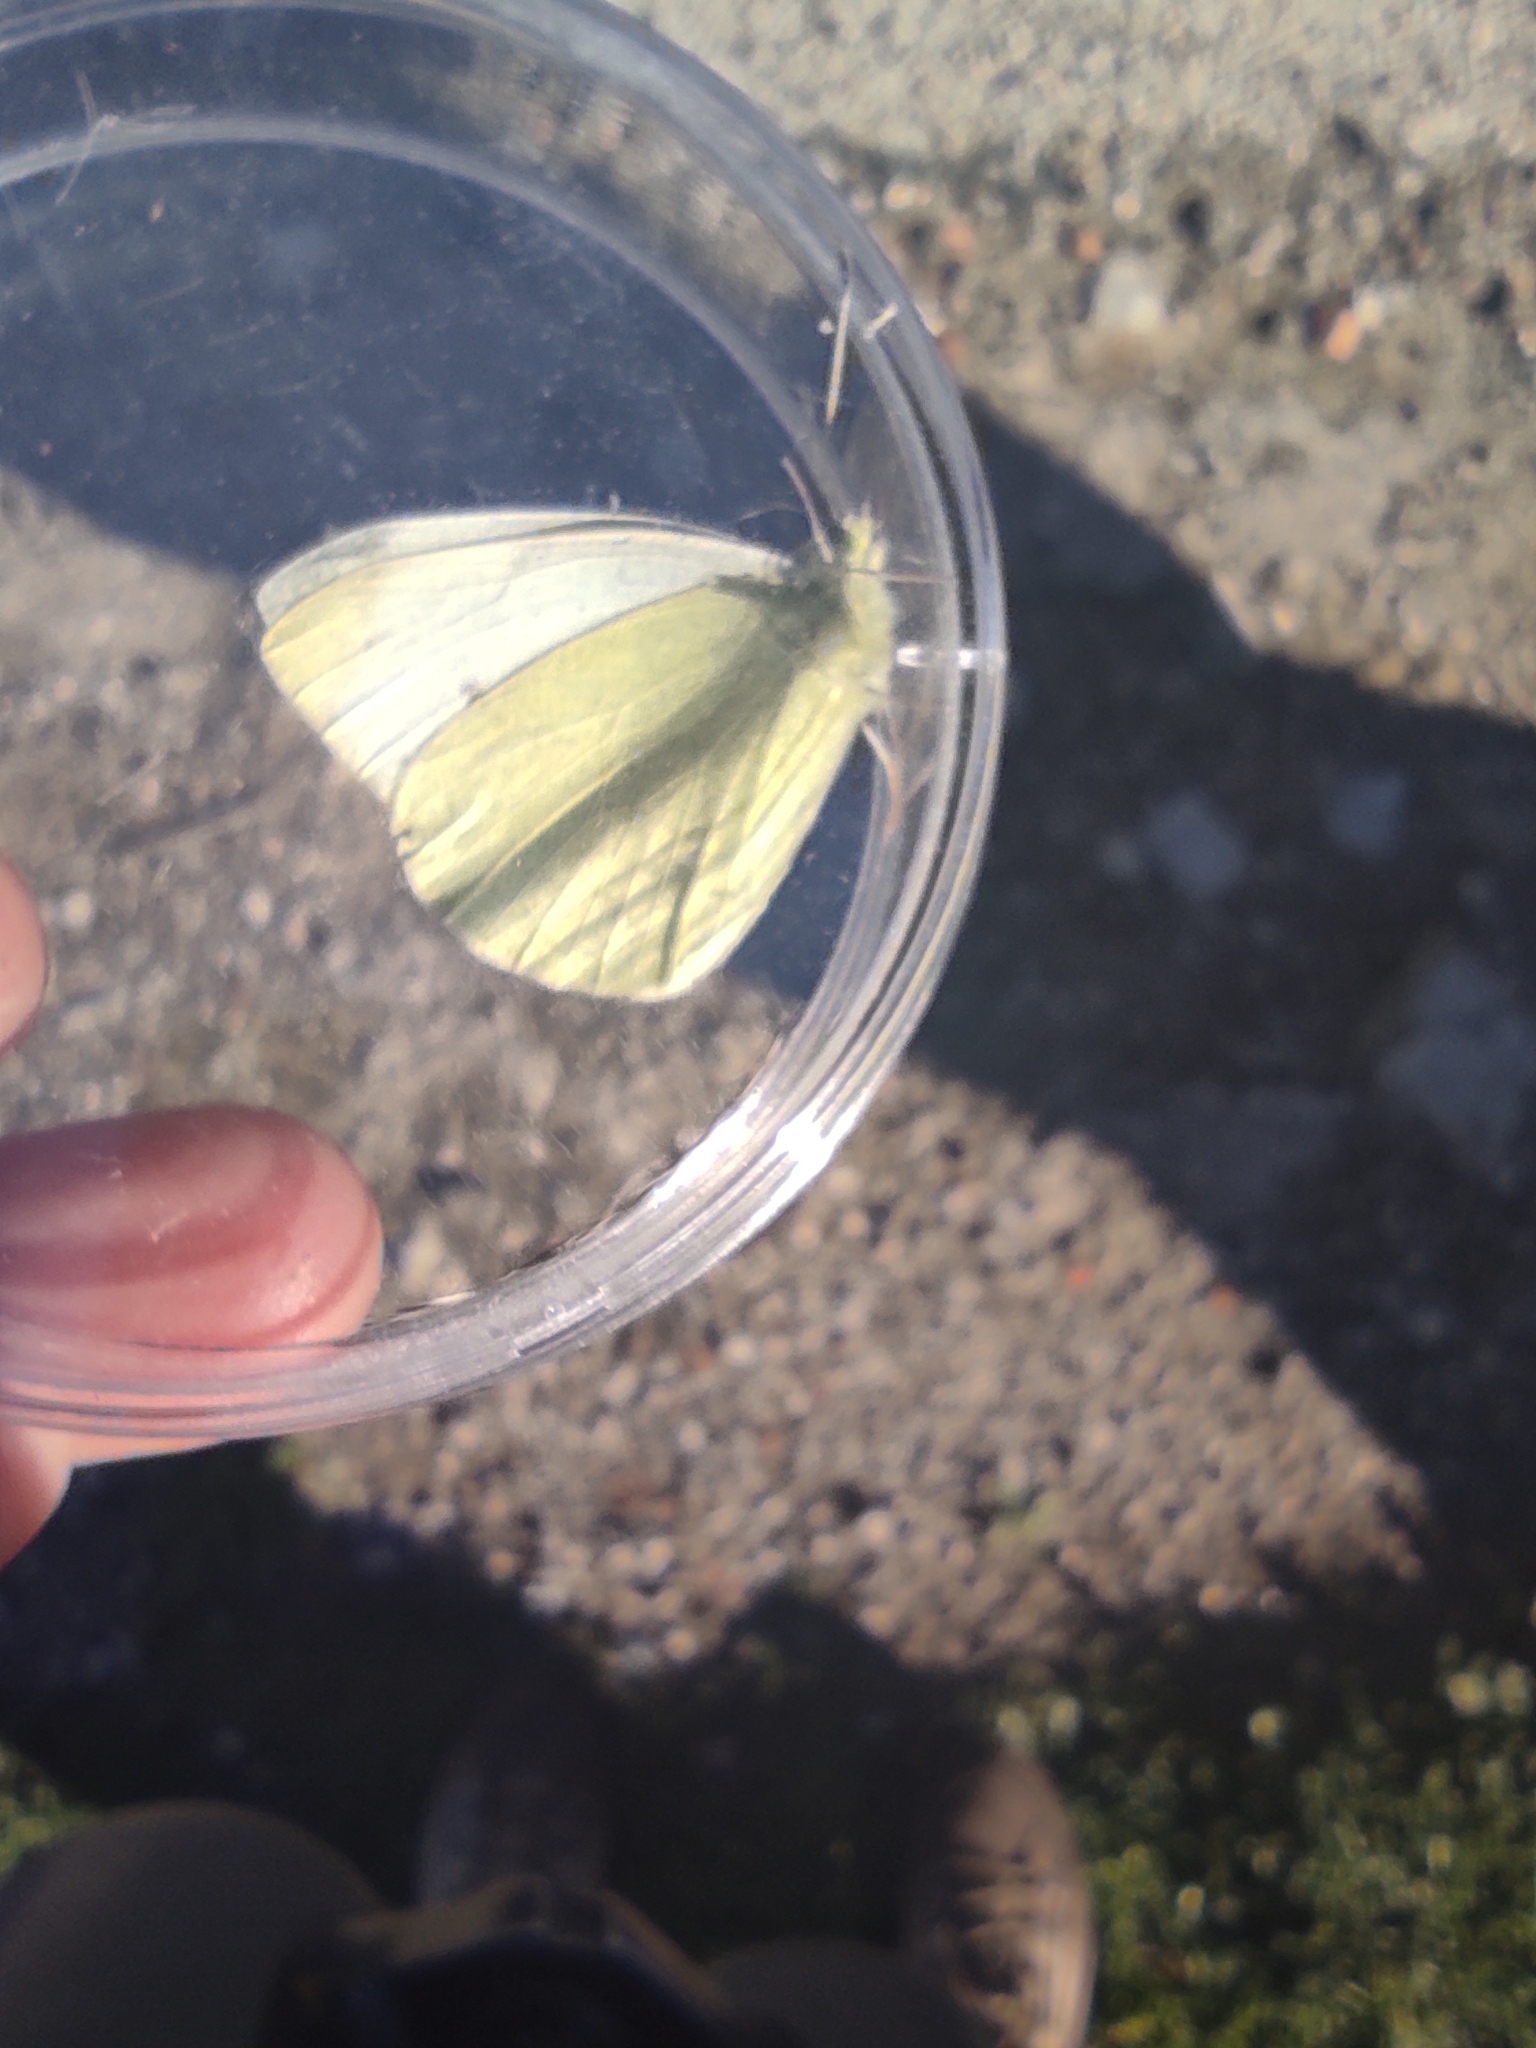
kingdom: Animalia
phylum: Arthropoda
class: Insecta
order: Lepidoptera
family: Pieridae
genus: Pieris
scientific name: Pieris rapae
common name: Small white
